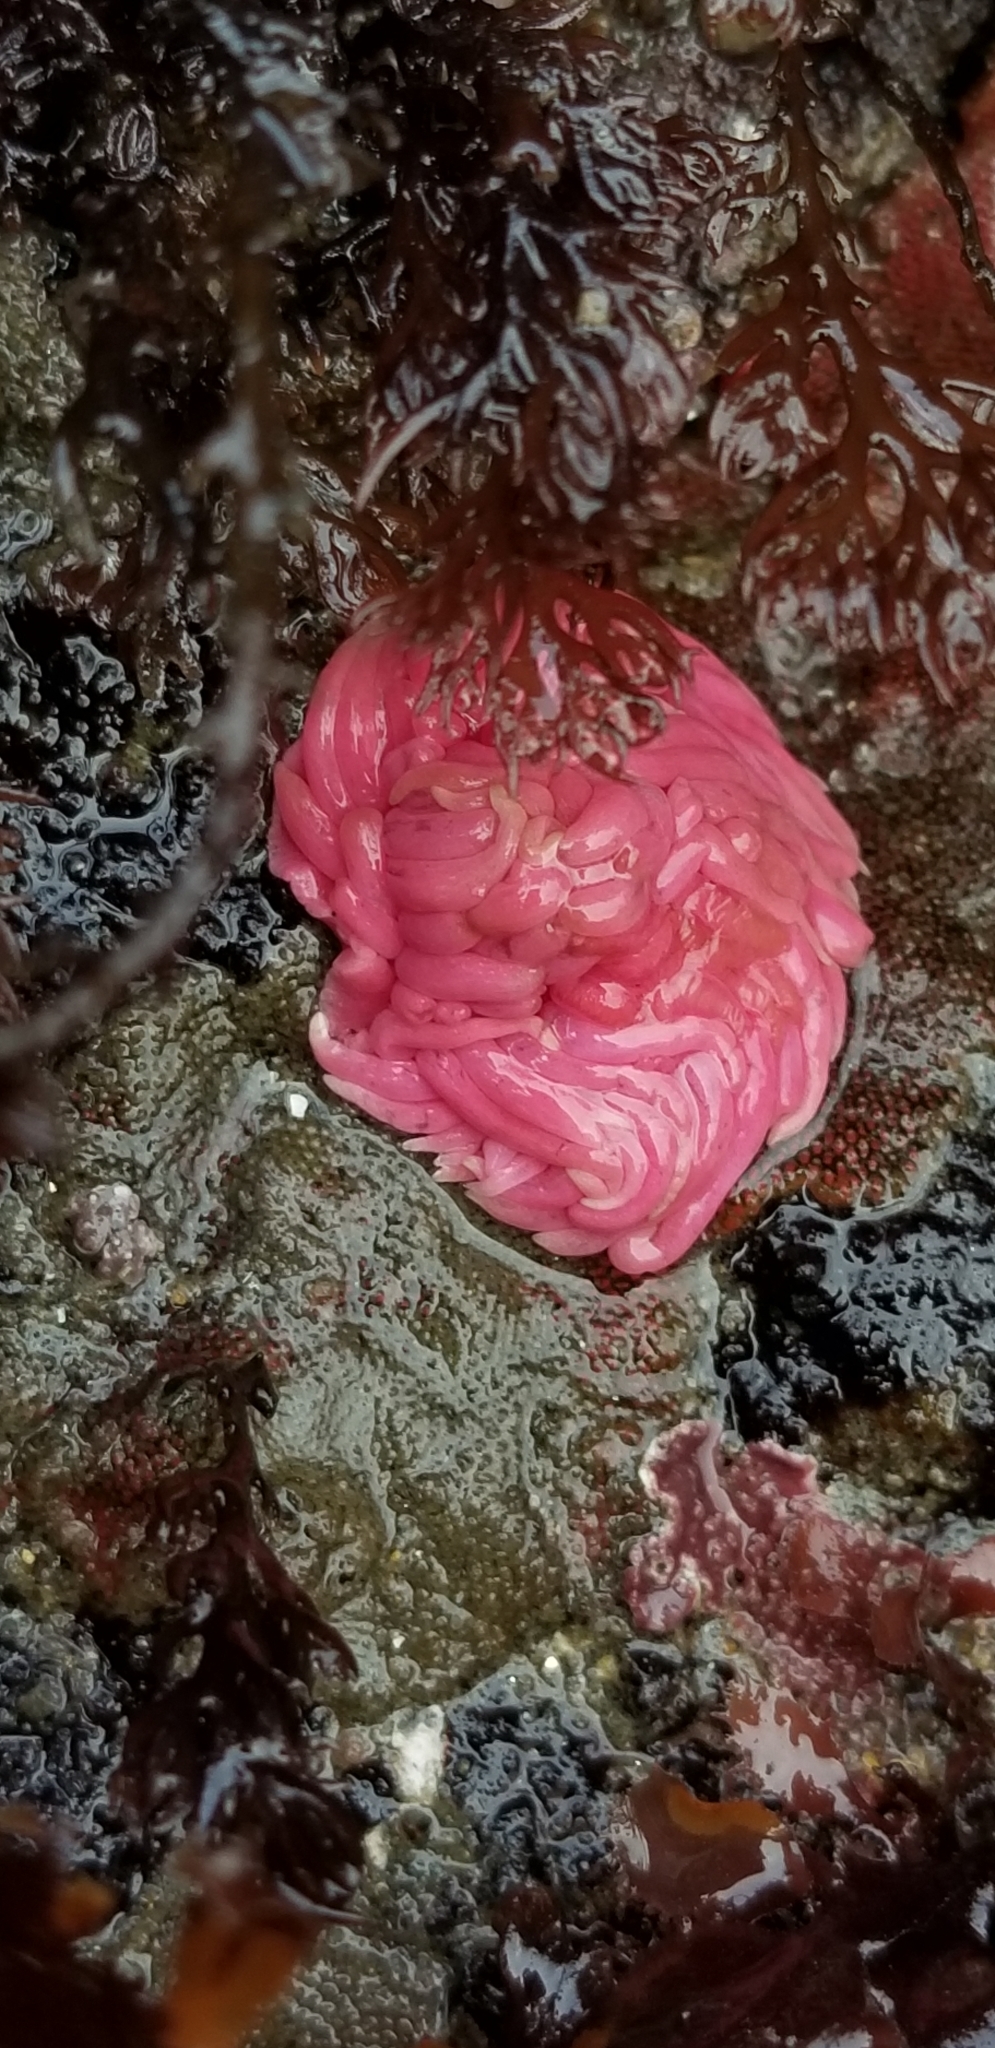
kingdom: Animalia
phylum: Mollusca
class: Gastropoda
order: Nudibranchia
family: Goniodorididae
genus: Okenia
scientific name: Okenia
